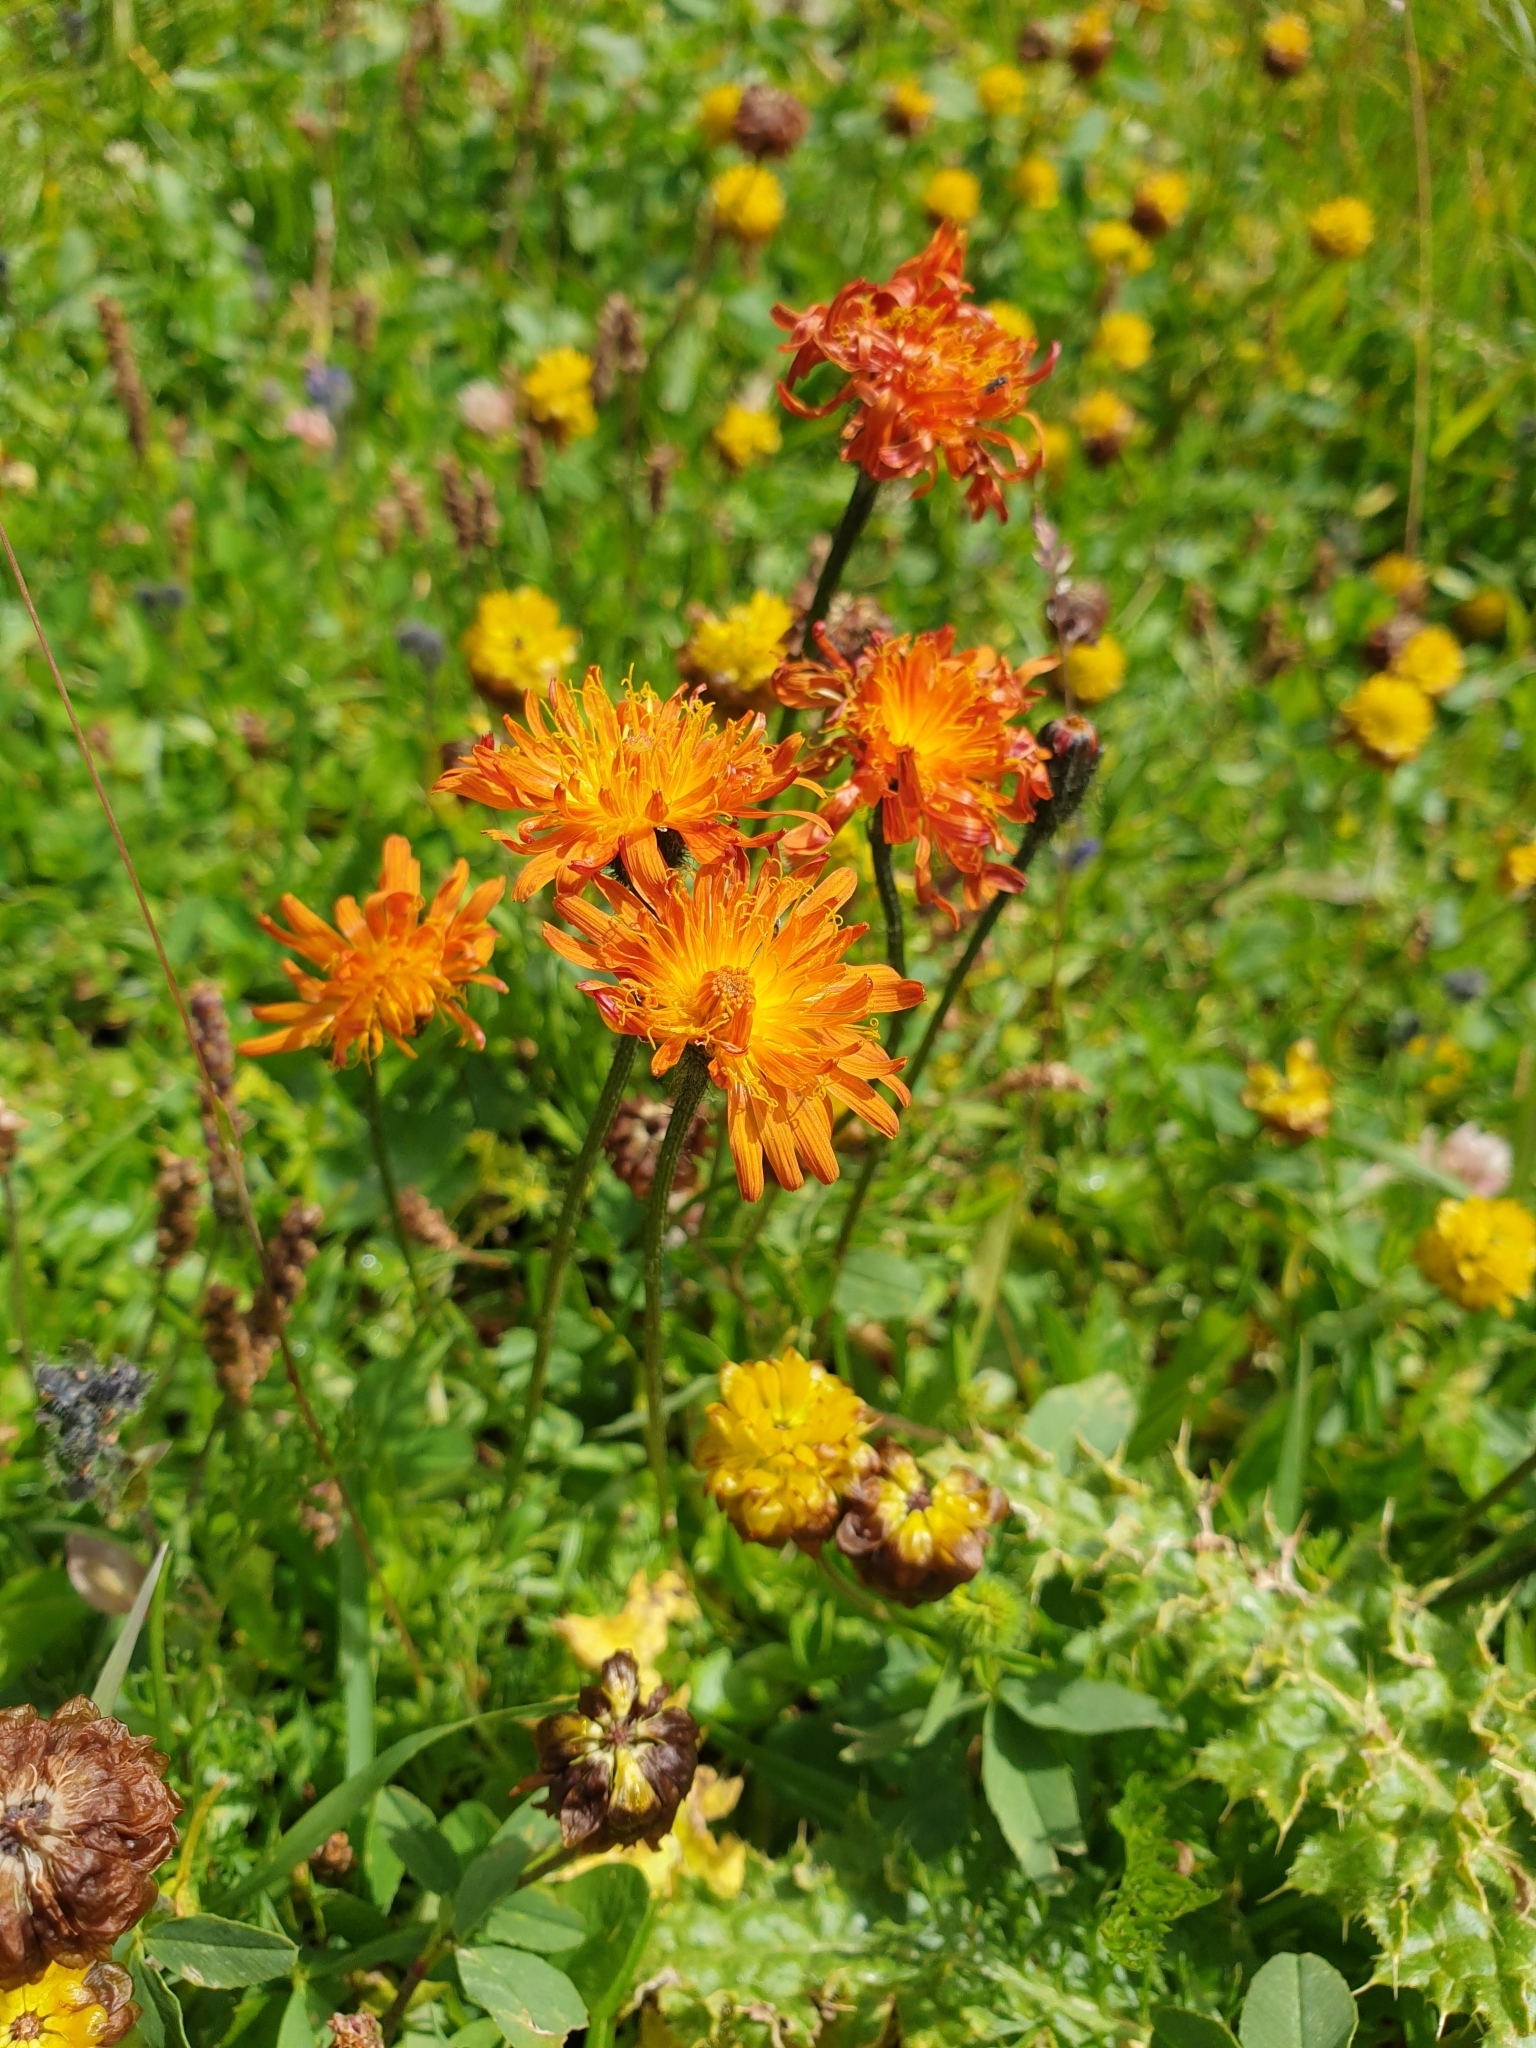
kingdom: Plantae
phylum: Tracheophyta
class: Magnoliopsida
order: Asterales
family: Asteraceae
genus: Crepis
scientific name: Crepis aurea
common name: Golden hawk's-beard
